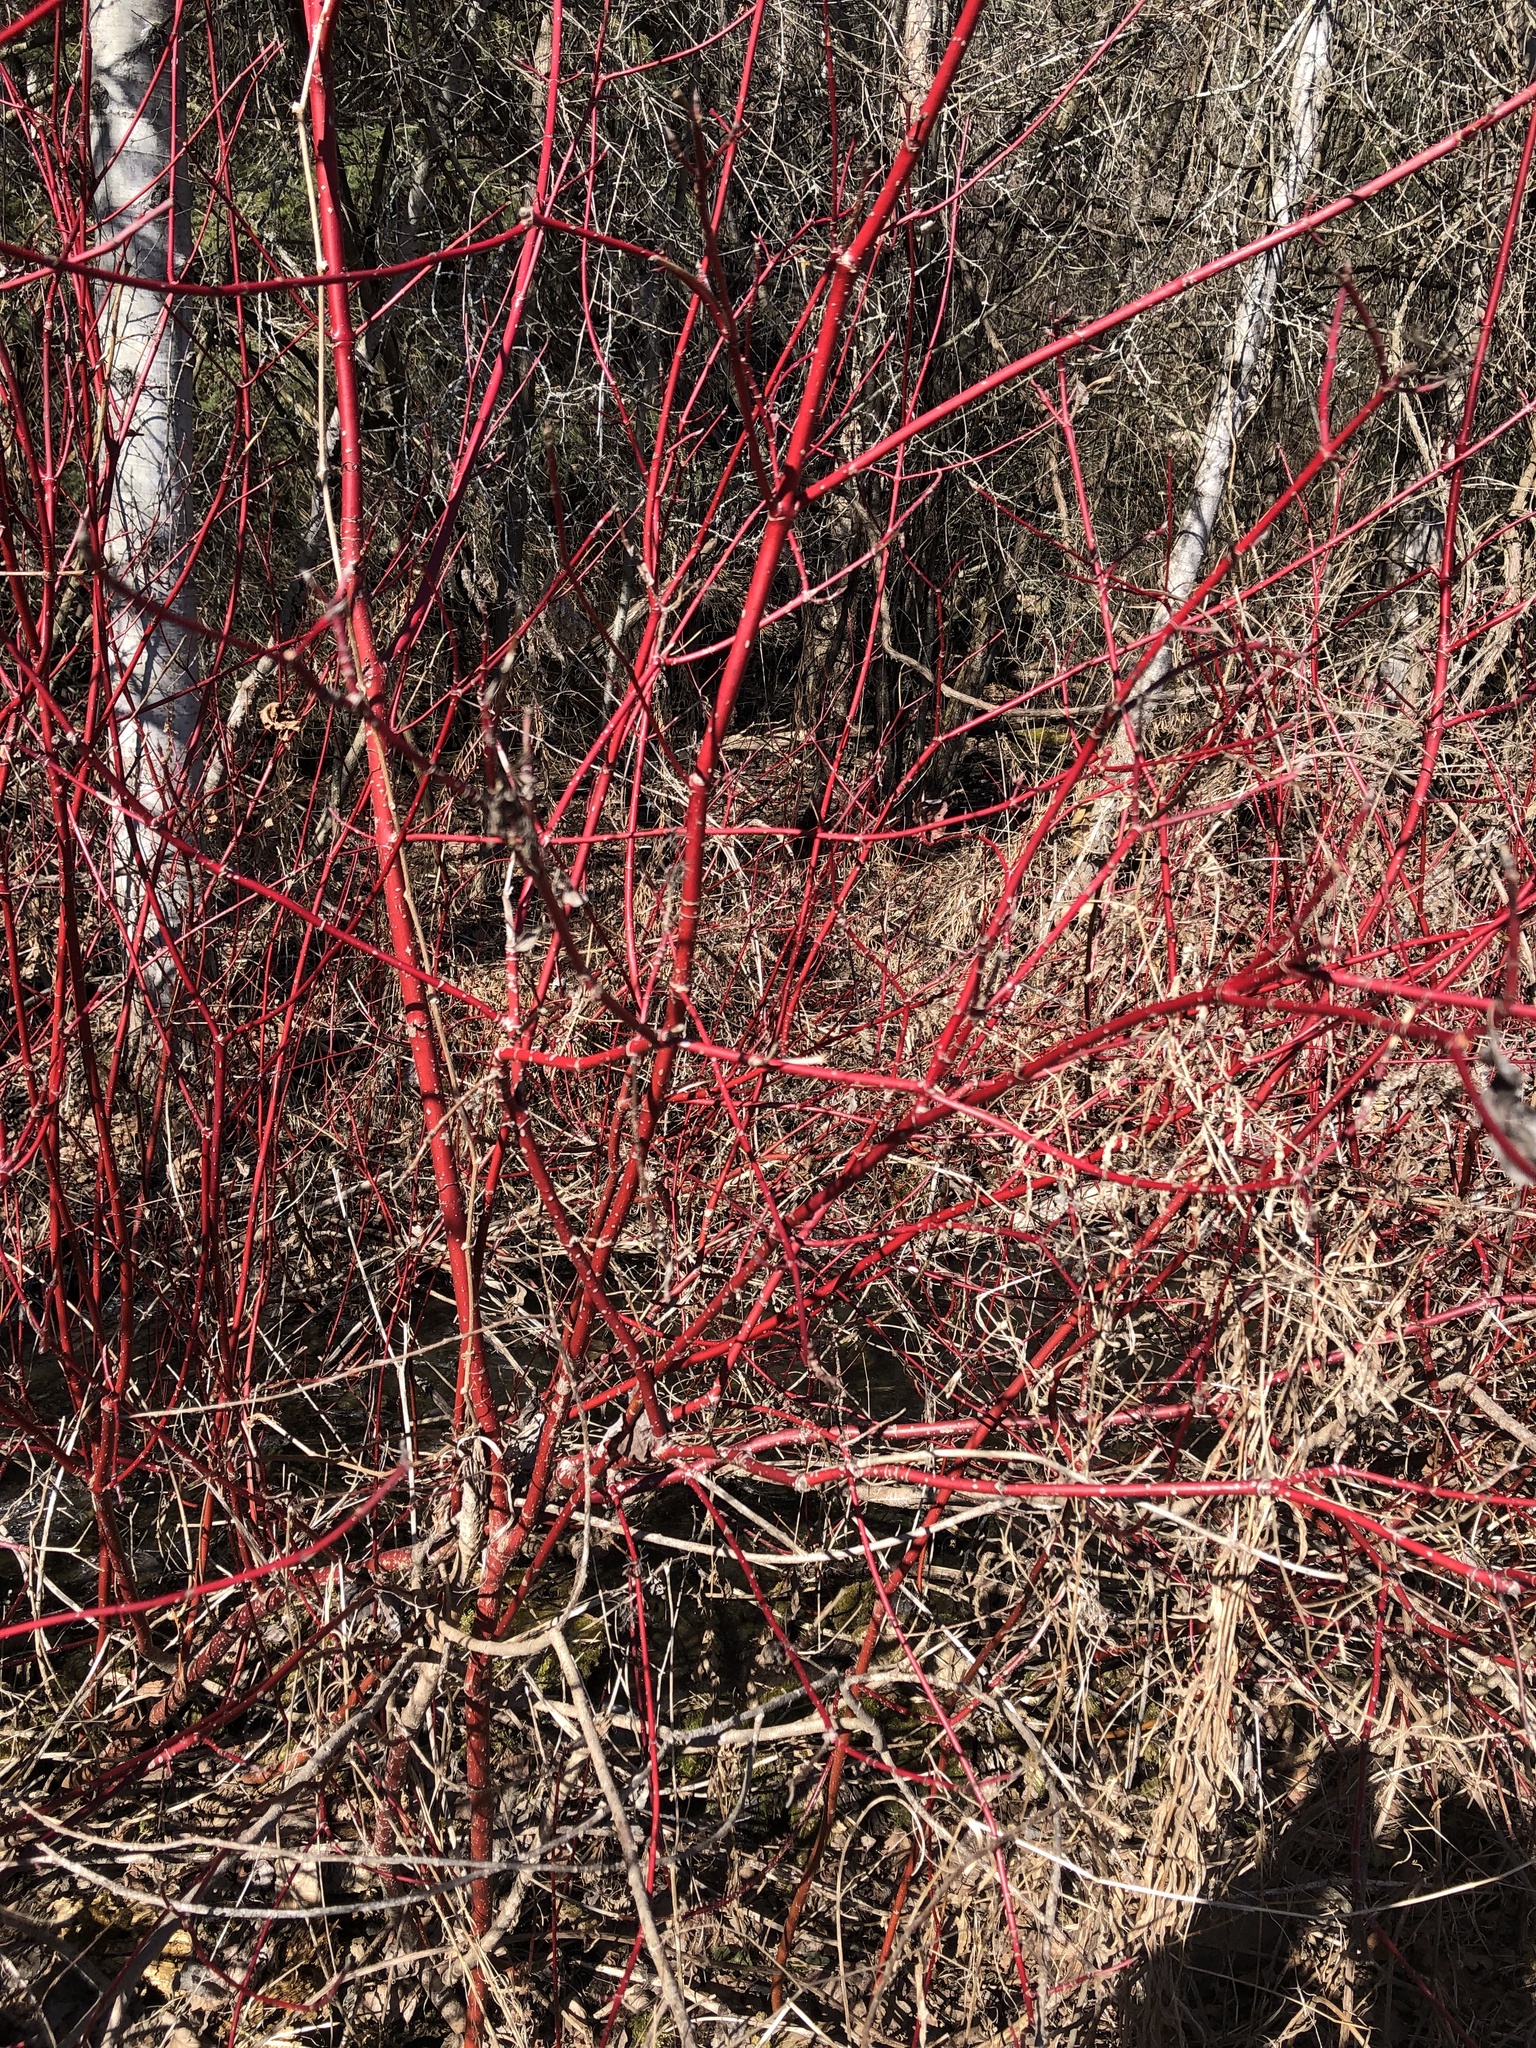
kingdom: Plantae
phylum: Tracheophyta
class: Magnoliopsida
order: Cornales
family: Cornaceae
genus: Cornus
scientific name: Cornus sericea
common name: Red-osier dogwood
